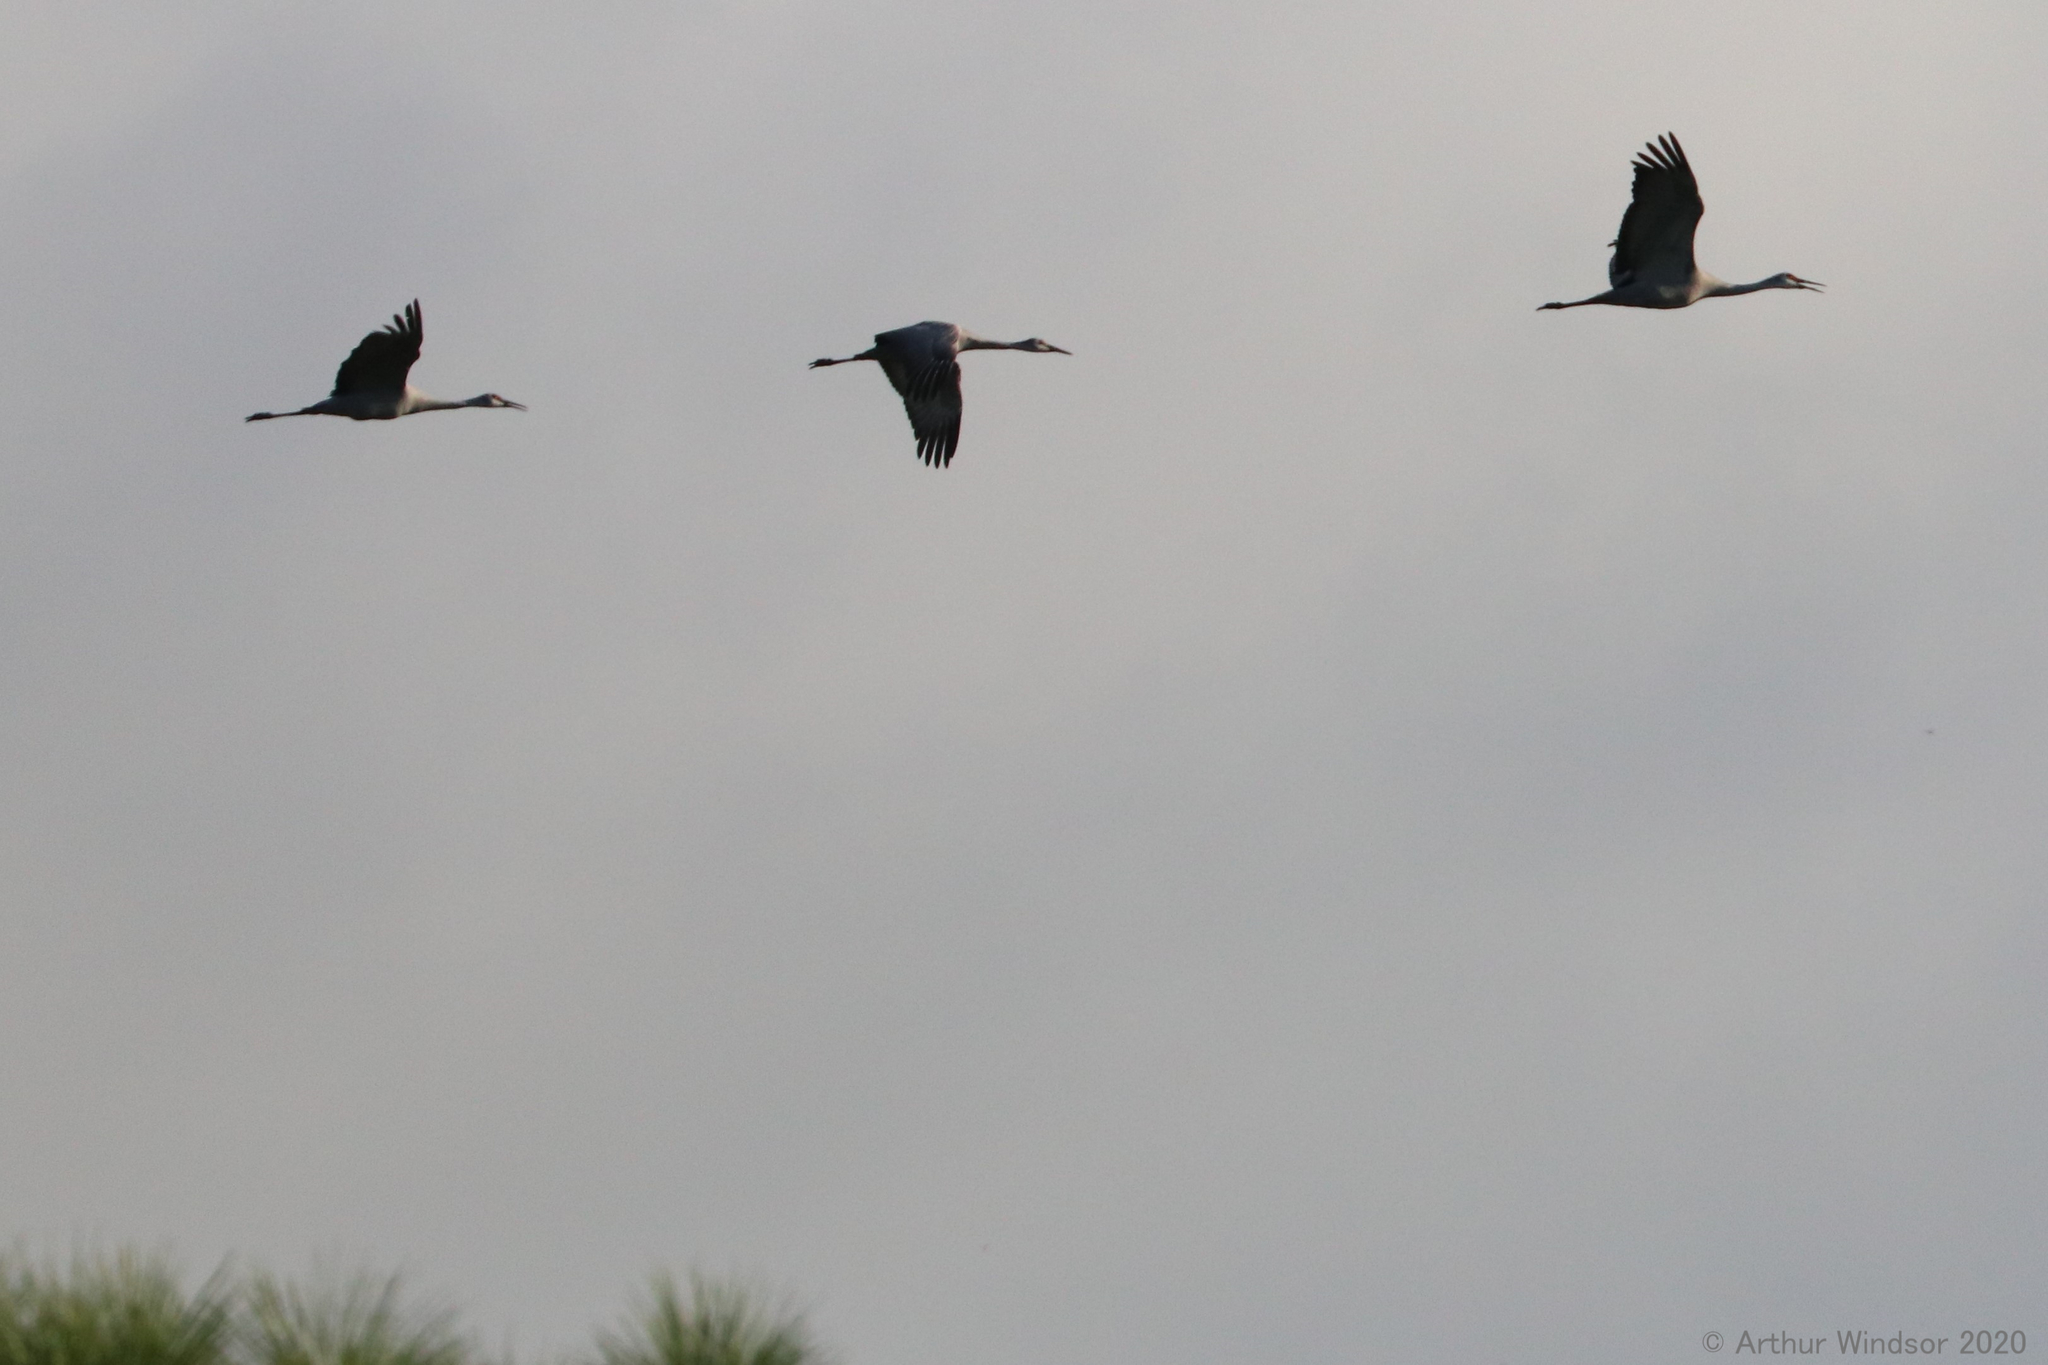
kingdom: Animalia
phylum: Chordata
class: Aves
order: Gruiformes
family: Gruidae
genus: Grus
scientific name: Grus canadensis
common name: Sandhill crane
